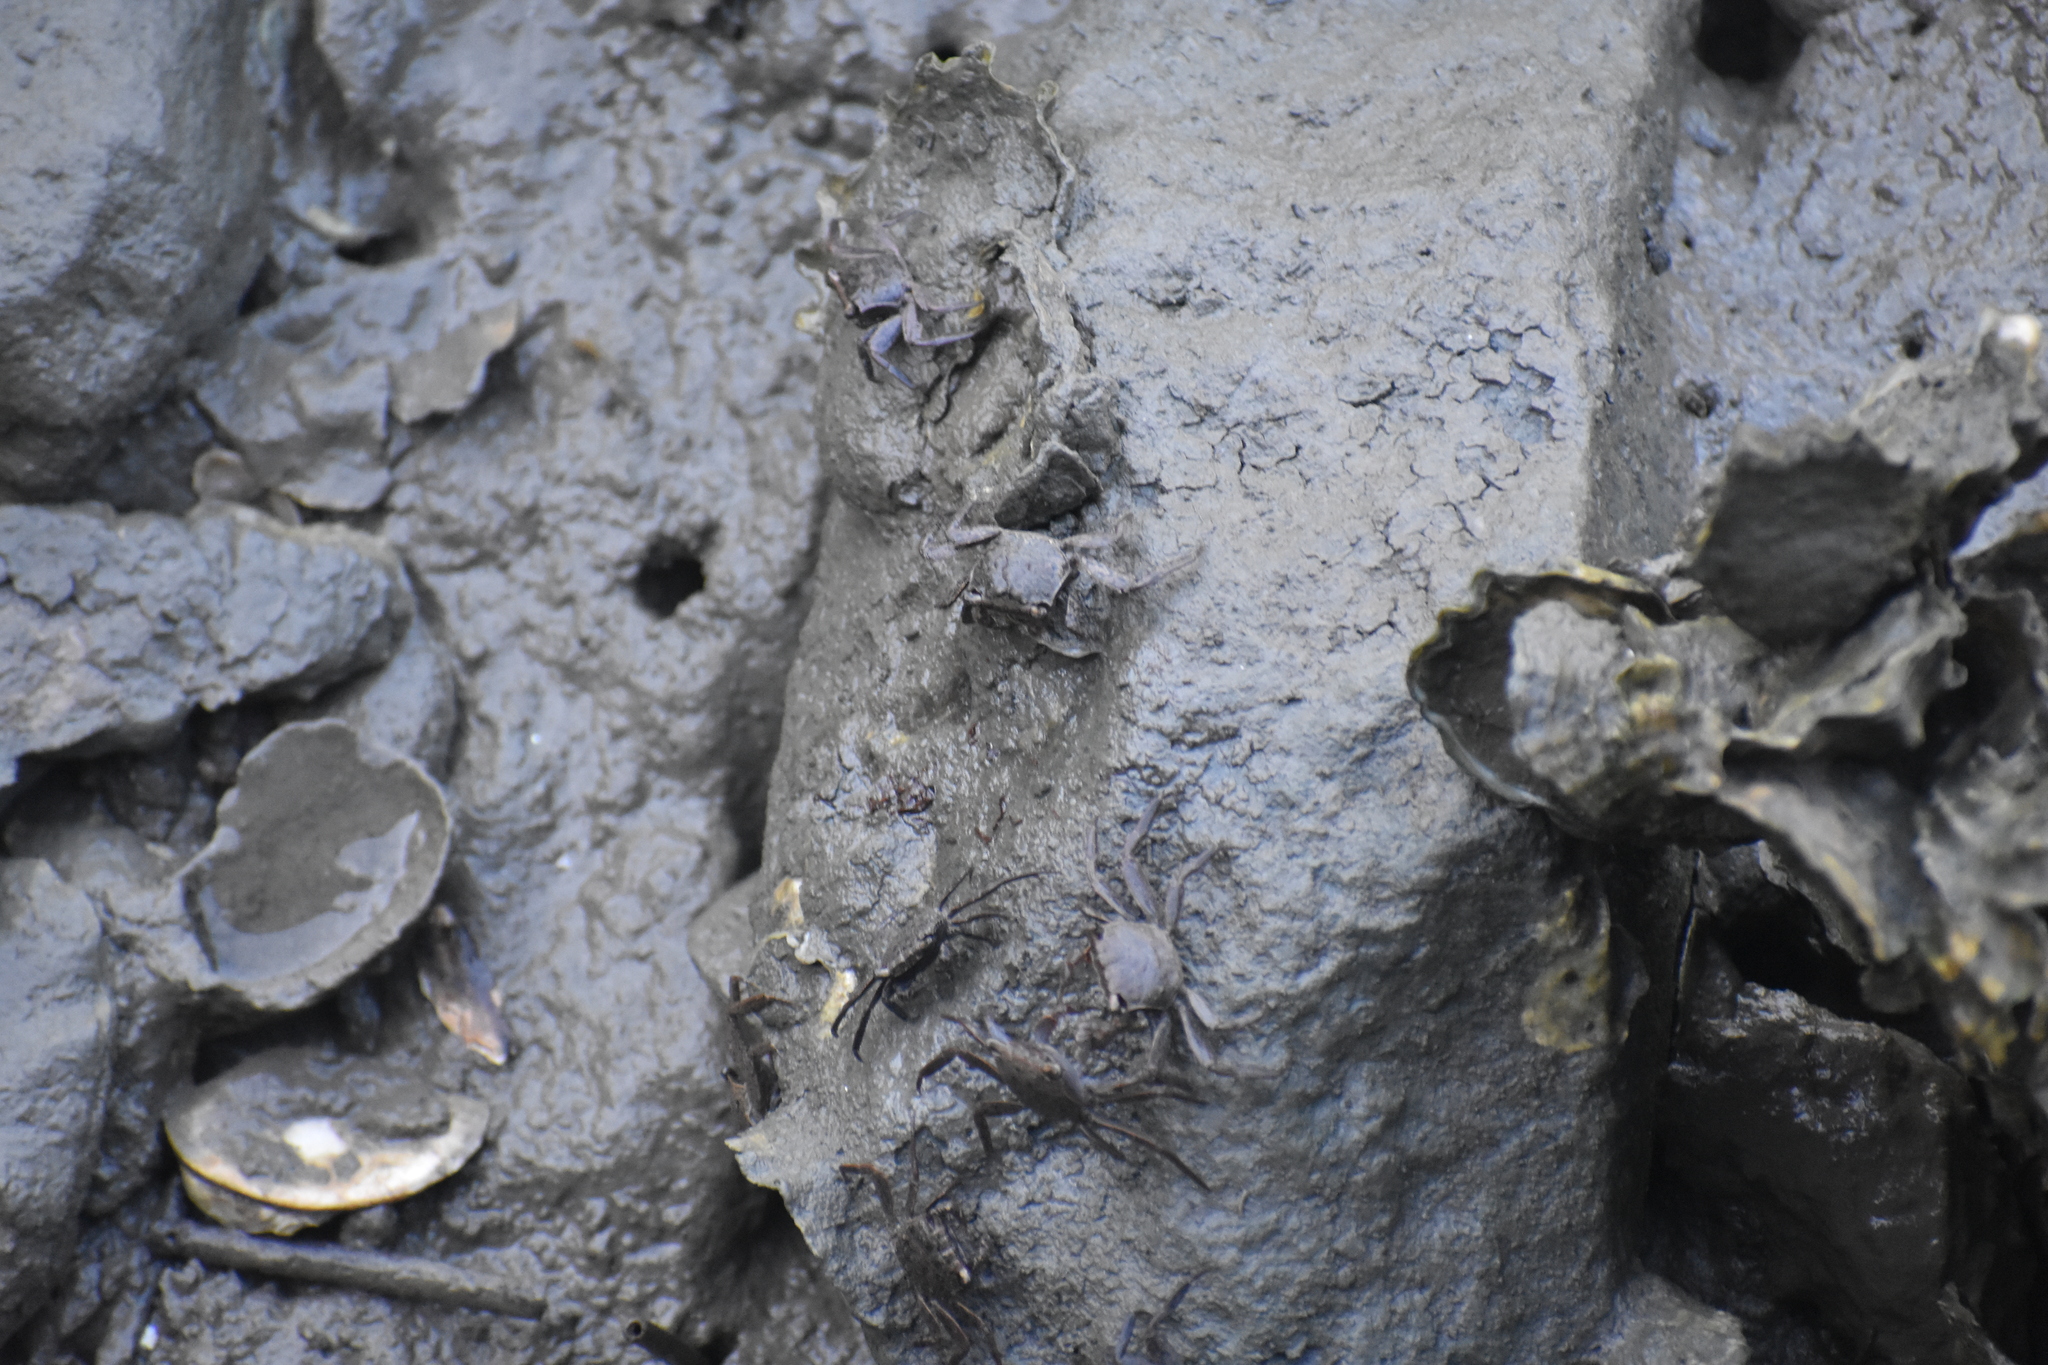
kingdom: Animalia
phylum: Arthropoda
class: Malacostraca
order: Decapoda
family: Sesarmidae
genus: Armases
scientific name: Armases cinereum
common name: Squareback marsh crab
